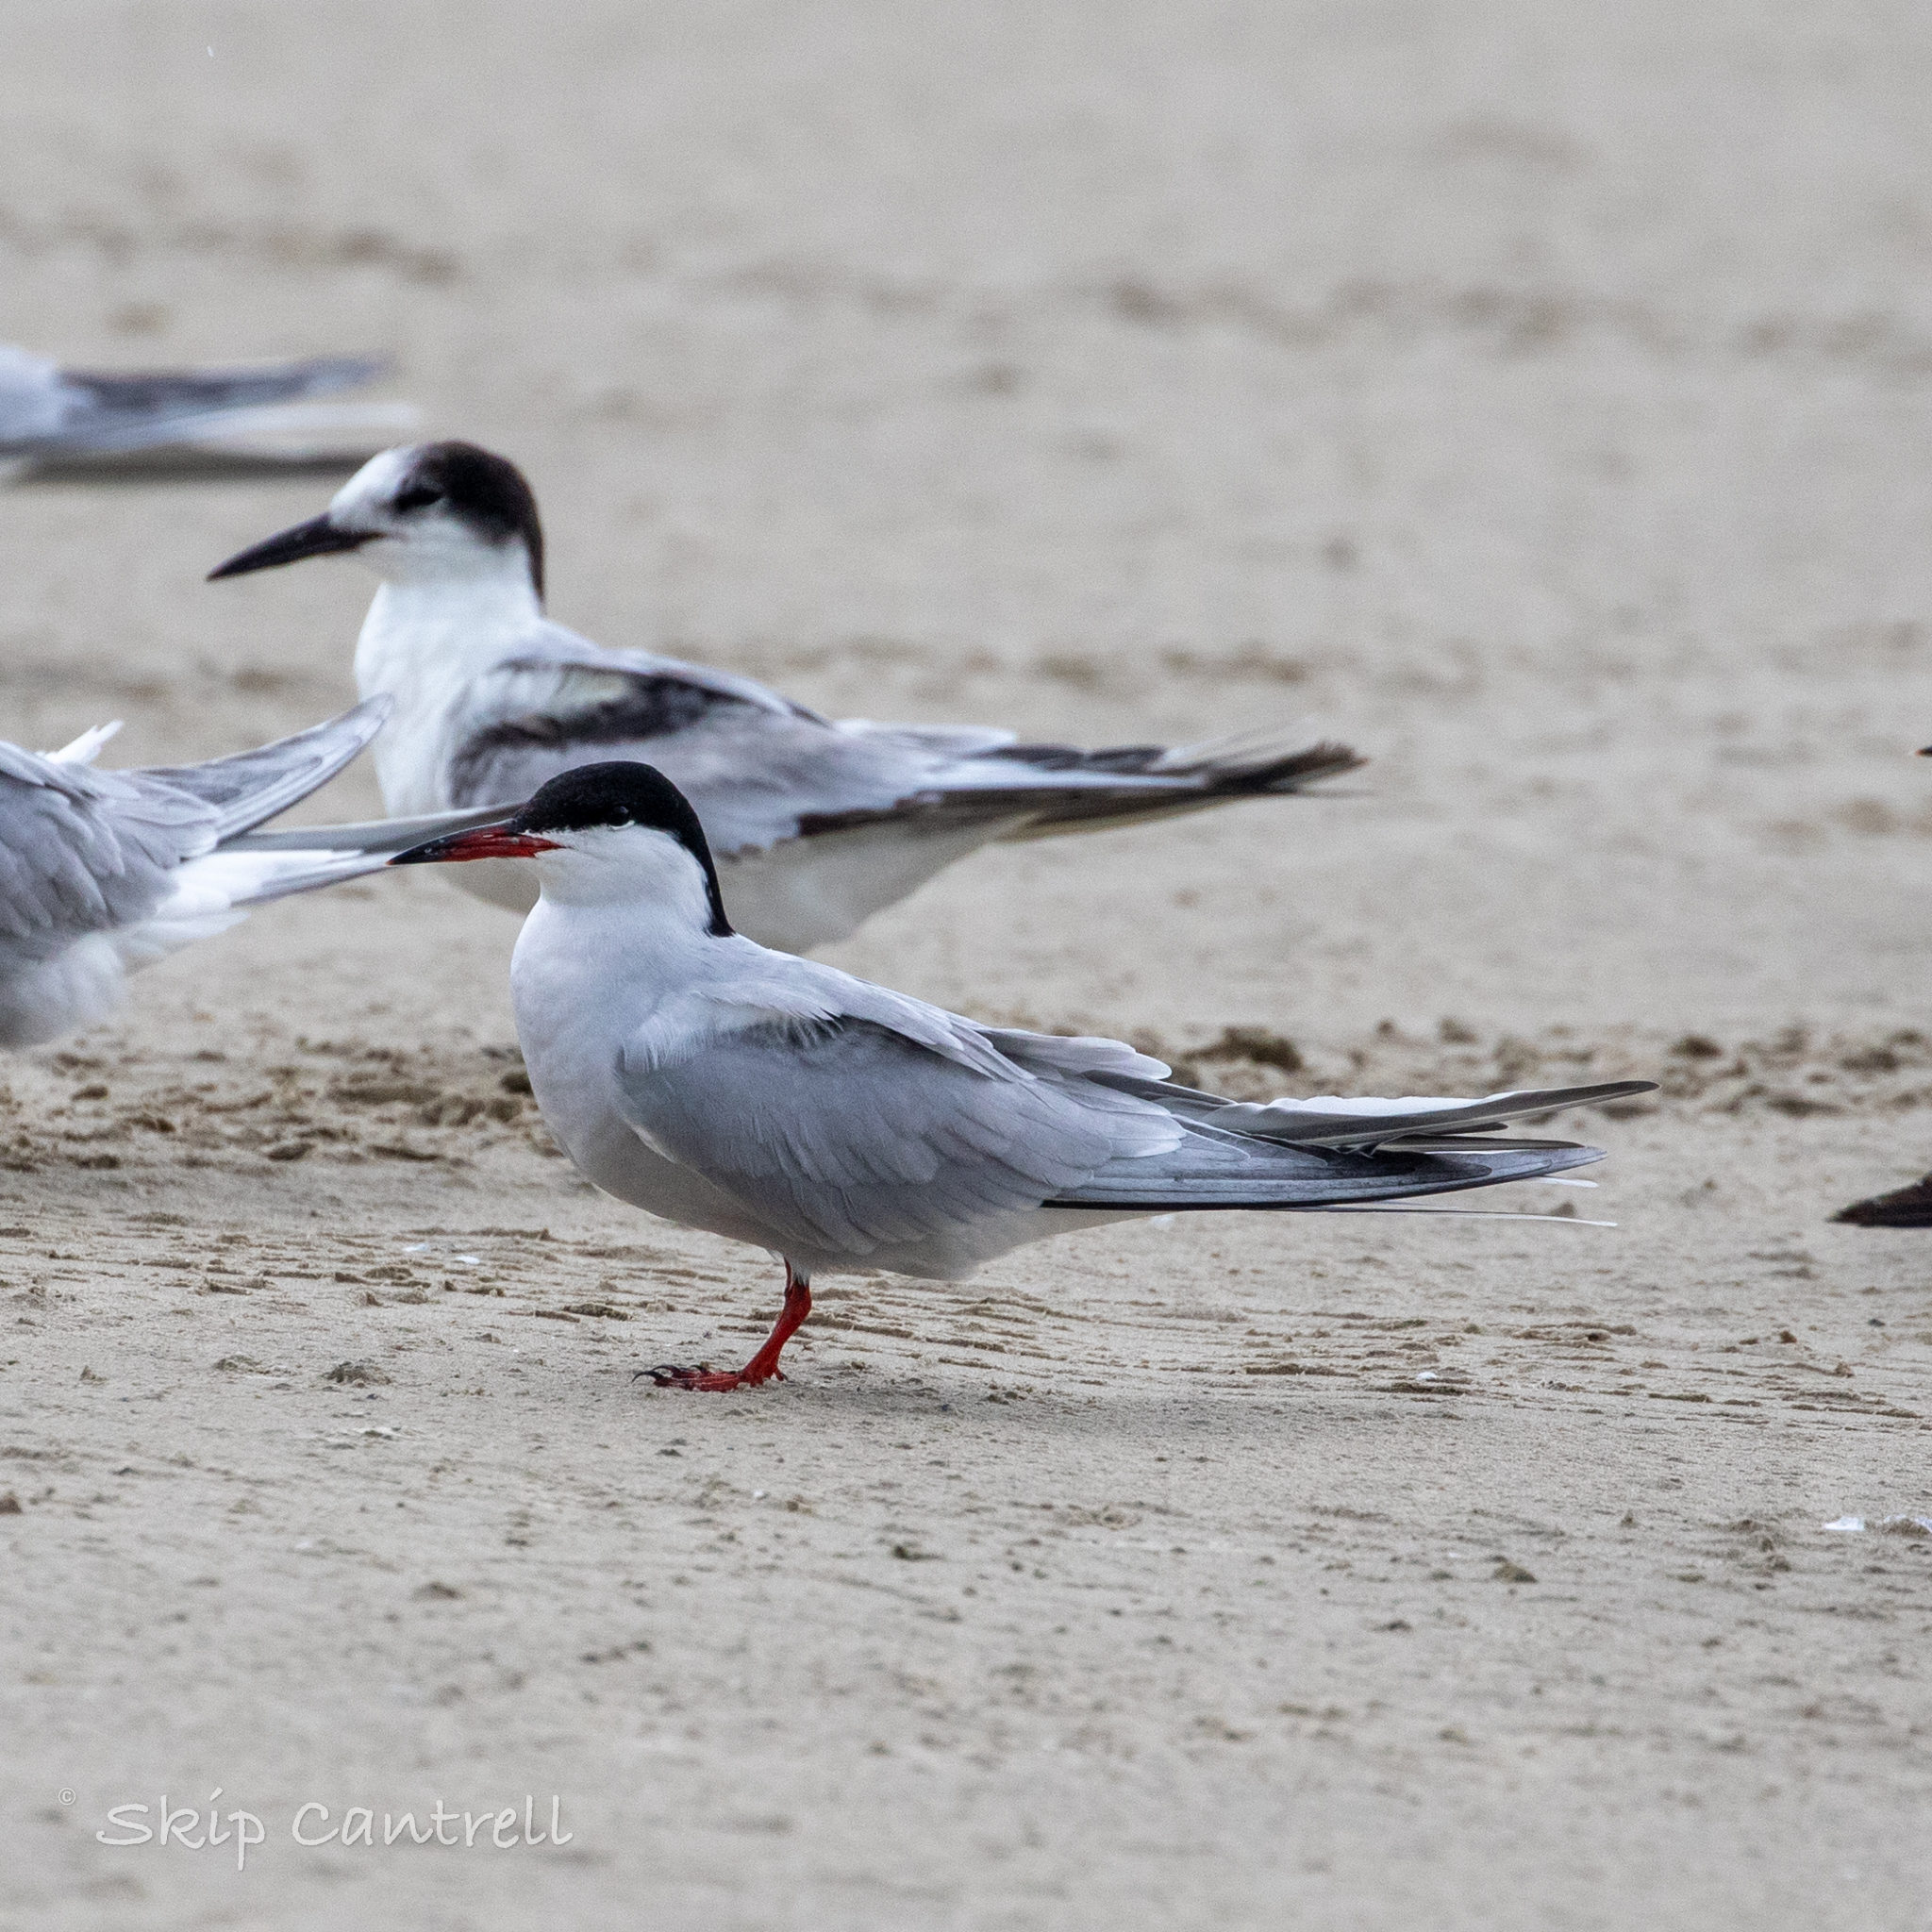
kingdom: Animalia
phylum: Chordata
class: Aves
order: Charadriiformes
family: Laridae
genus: Sterna
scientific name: Sterna hirundo
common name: Common tern
